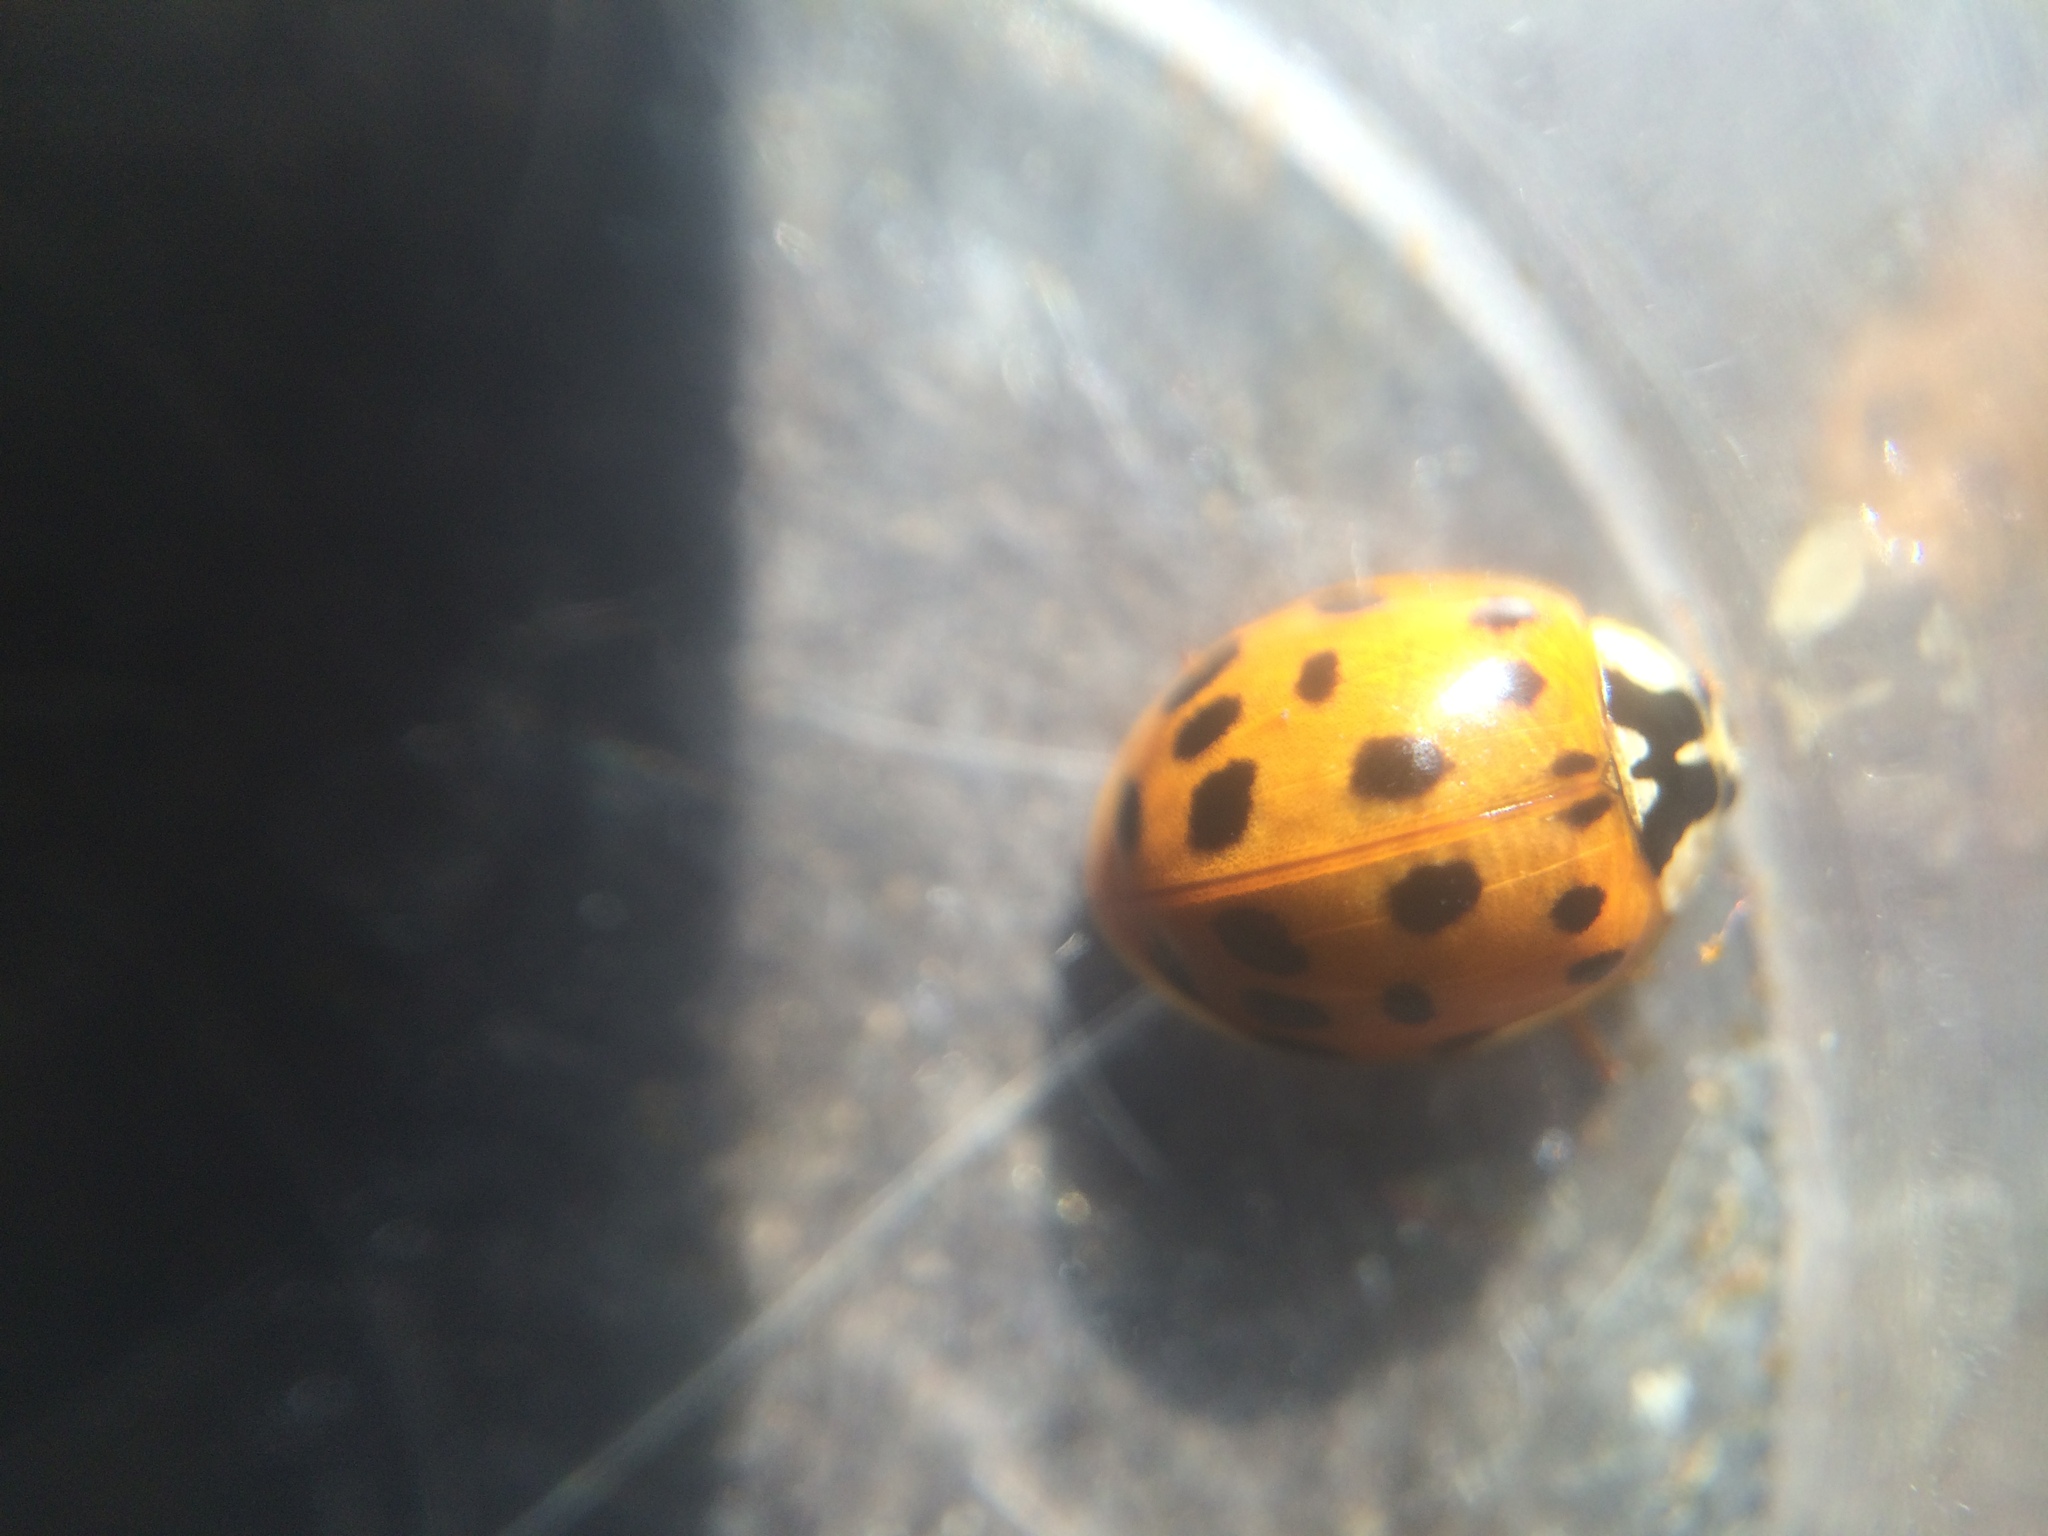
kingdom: Animalia
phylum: Arthropoda
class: Insecta
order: Coleoptera
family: Coccinellidae
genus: Harmonia
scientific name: Harmonia axyridis
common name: Harlequin ladybird
